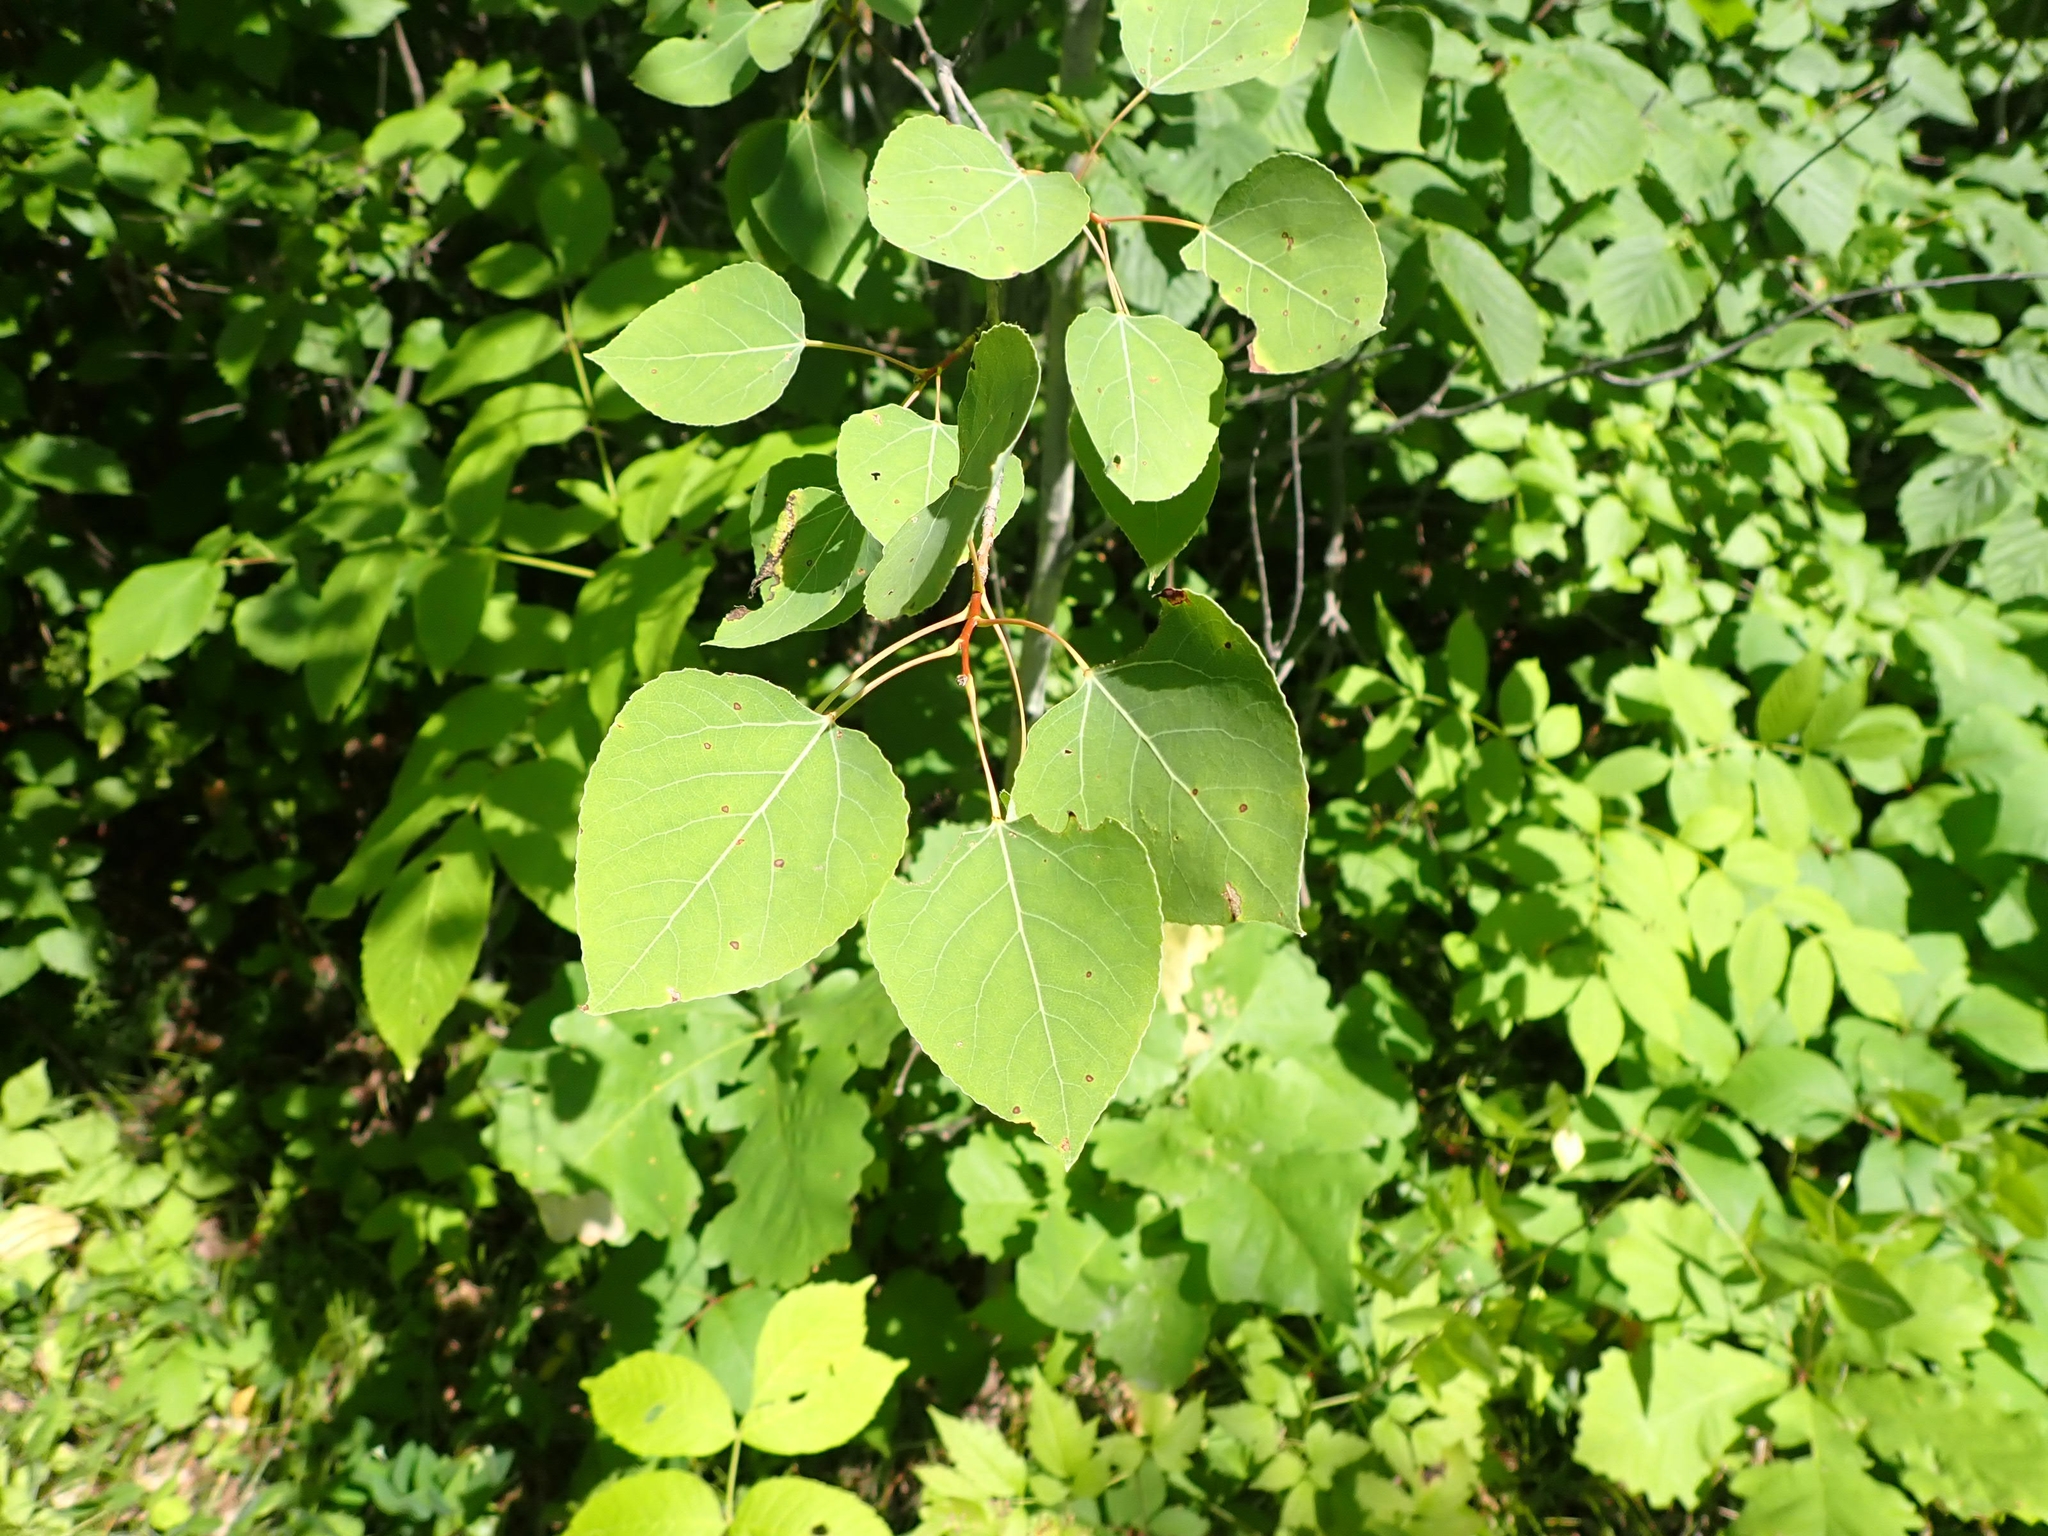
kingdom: Plantae
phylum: Tracheophyta
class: Magnoliopsida
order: Malpighiales
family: Salicaceae
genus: Populus
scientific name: Populus tremuloides
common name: Quaking aspen
